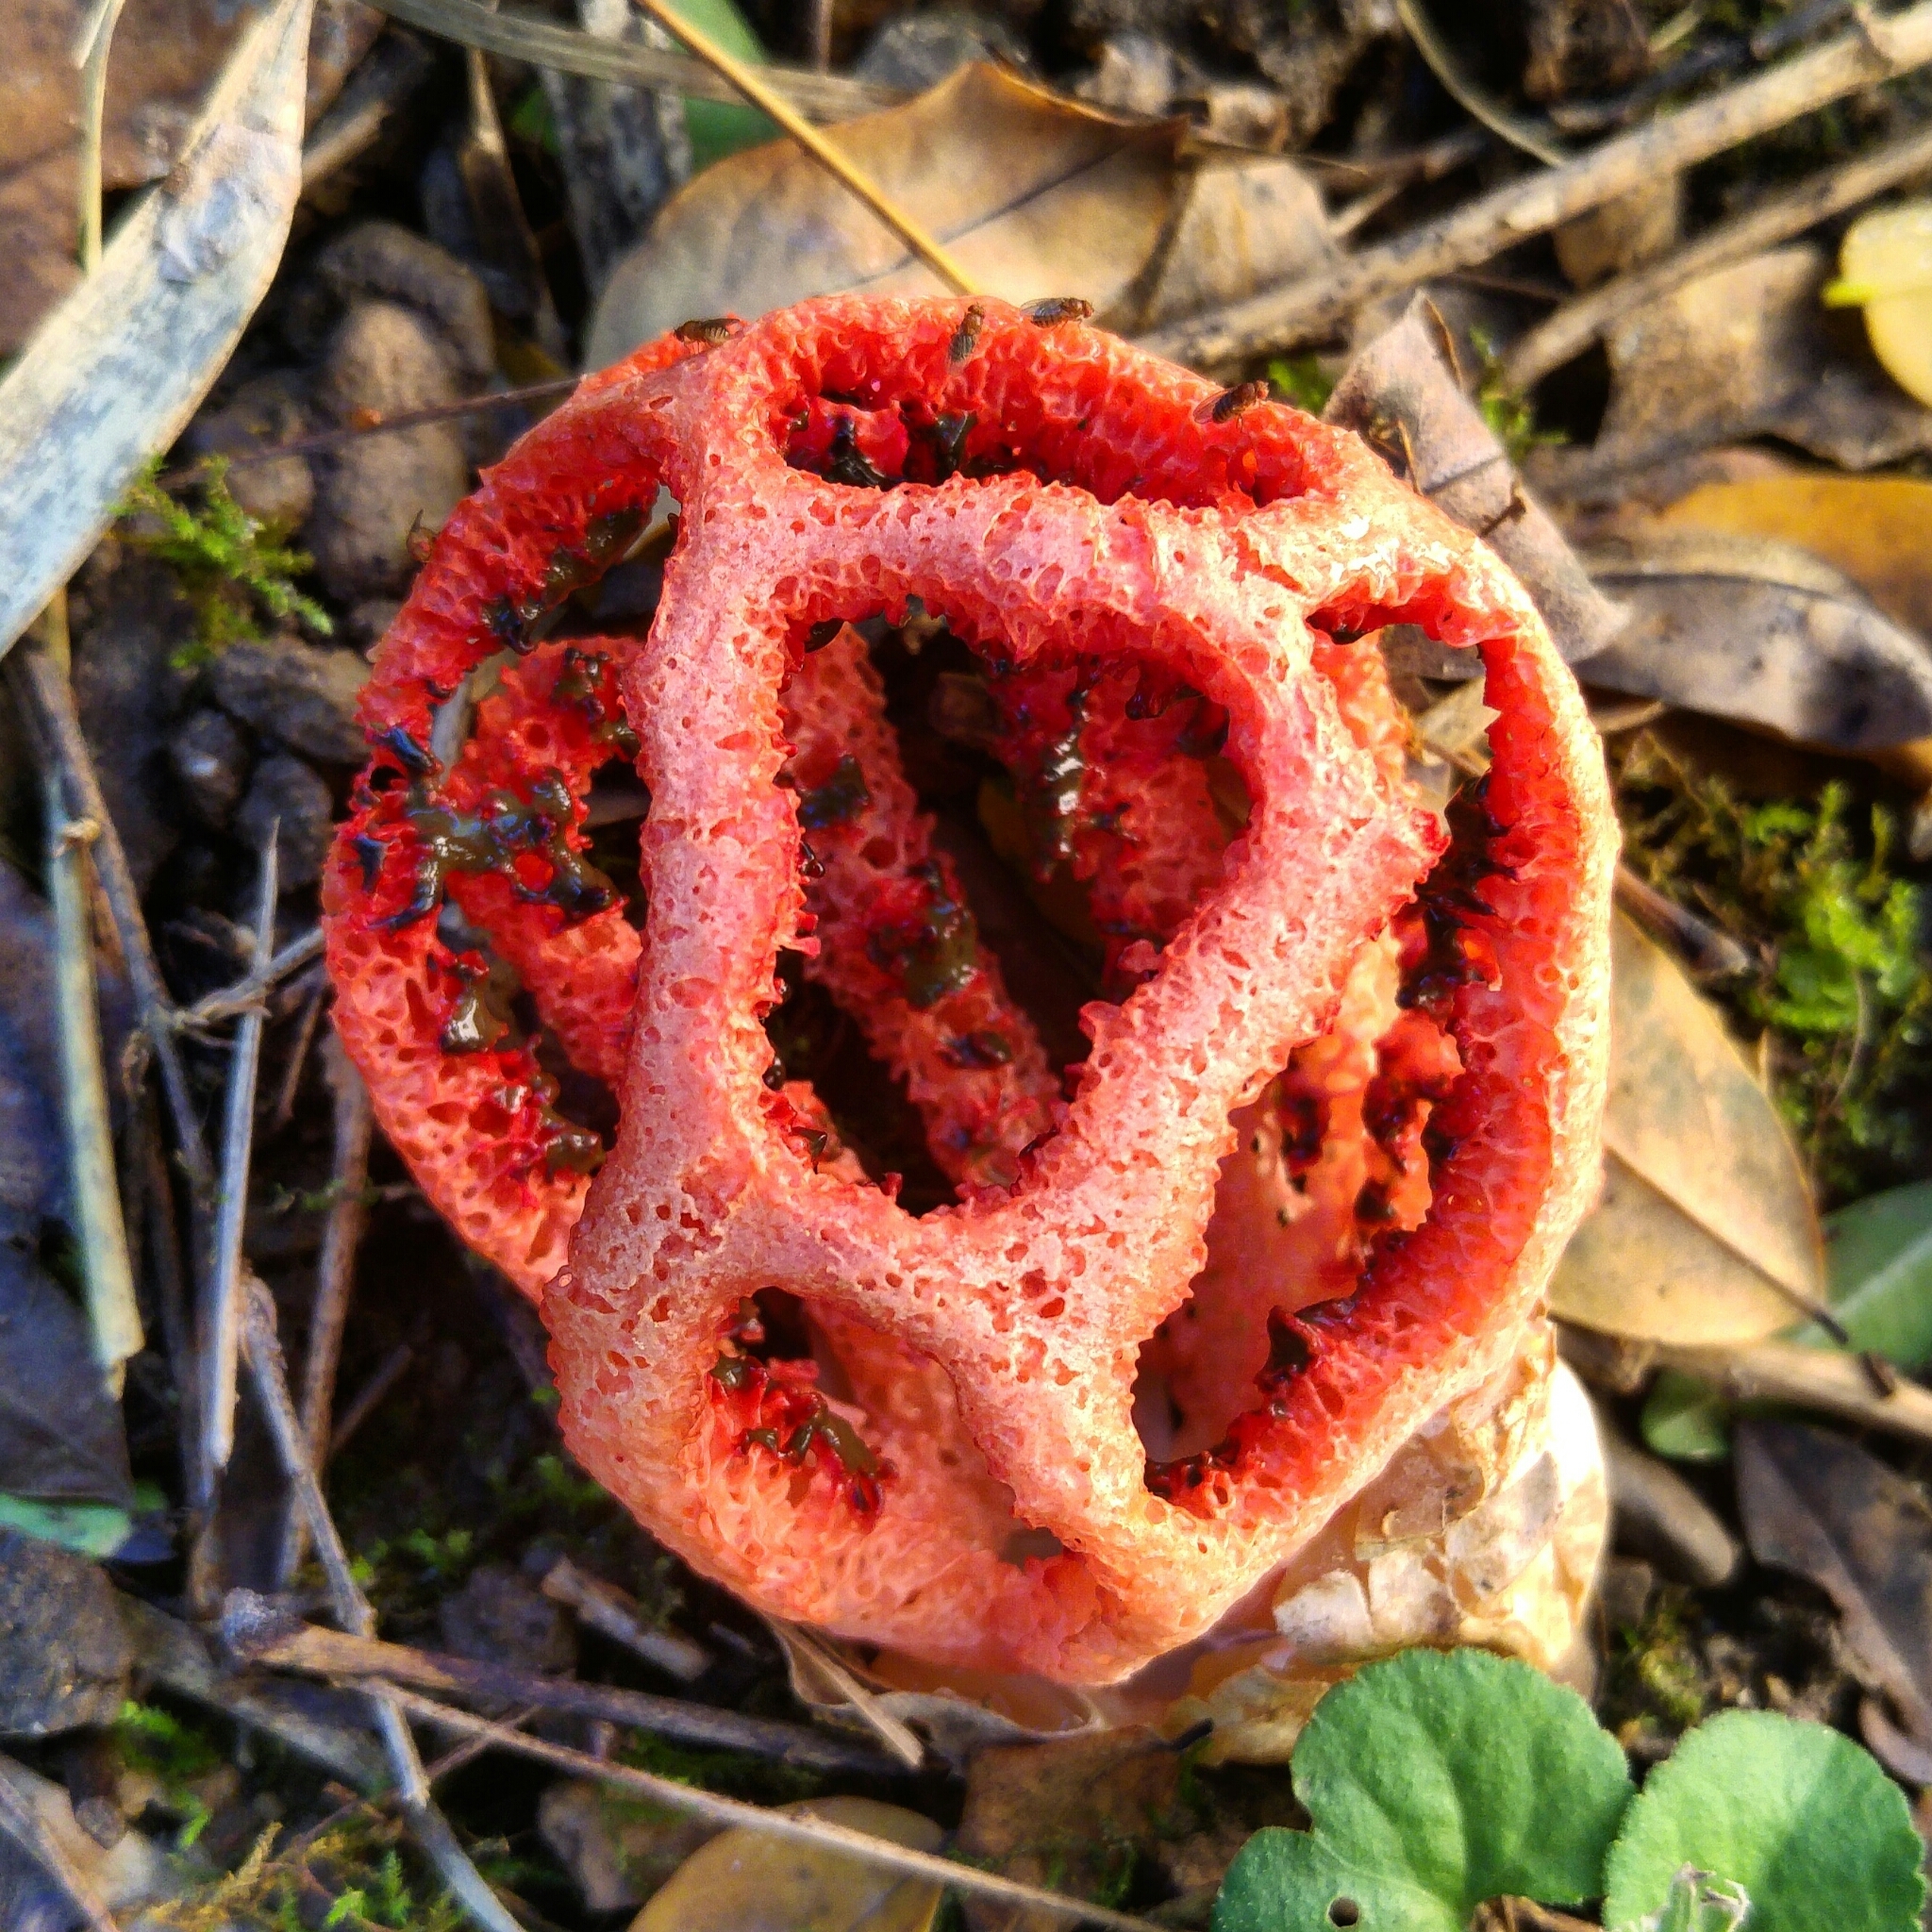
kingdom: Fungi
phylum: Basidiomycota
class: Agaricomycetes
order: Phallales
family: Phallaceae
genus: Clathrus
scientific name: Clathrus ruber
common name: Red cage
